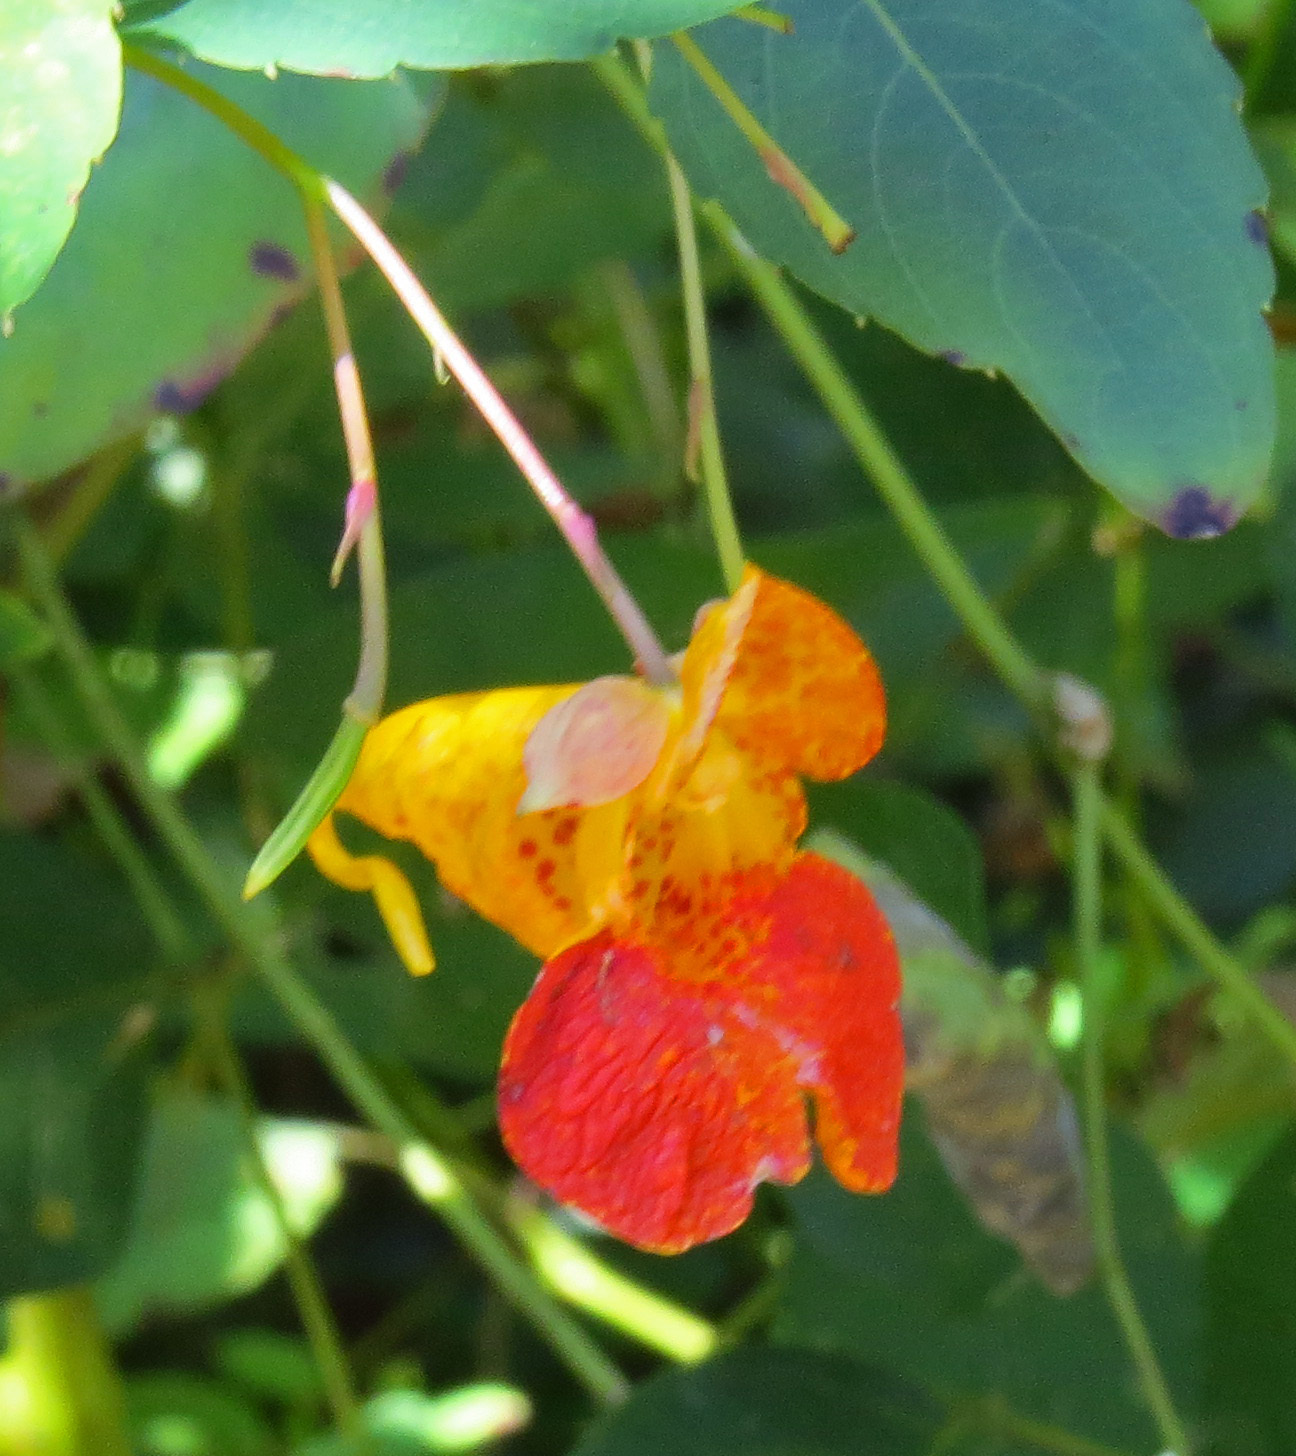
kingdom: Plantae
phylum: Tracheophyta
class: Magnoliopsida
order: Ericales
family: Balsaminaceae
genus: Impatiens
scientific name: Impatiens capensis
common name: Orange balsam
